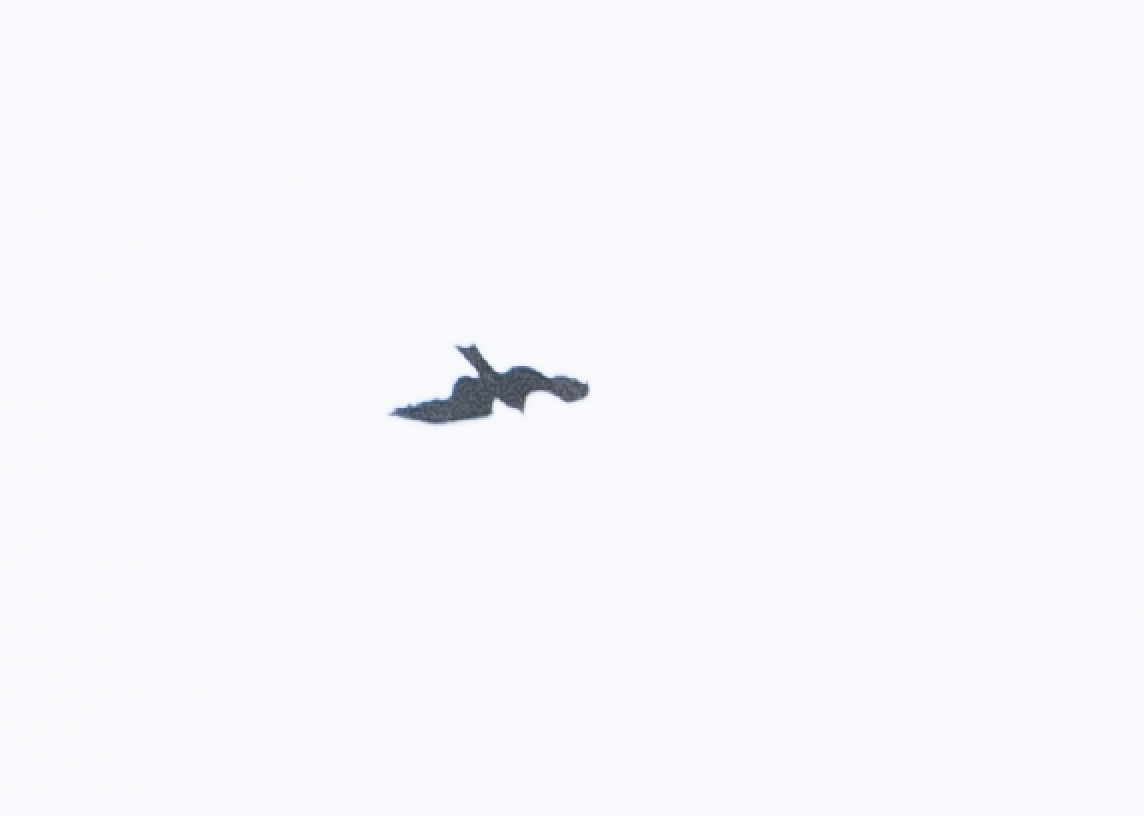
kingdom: Animalia
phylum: Chordata
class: Aves
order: Accipitriformes
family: Accipitridae
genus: Milvus
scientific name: Milvus migrans
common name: Black kite
